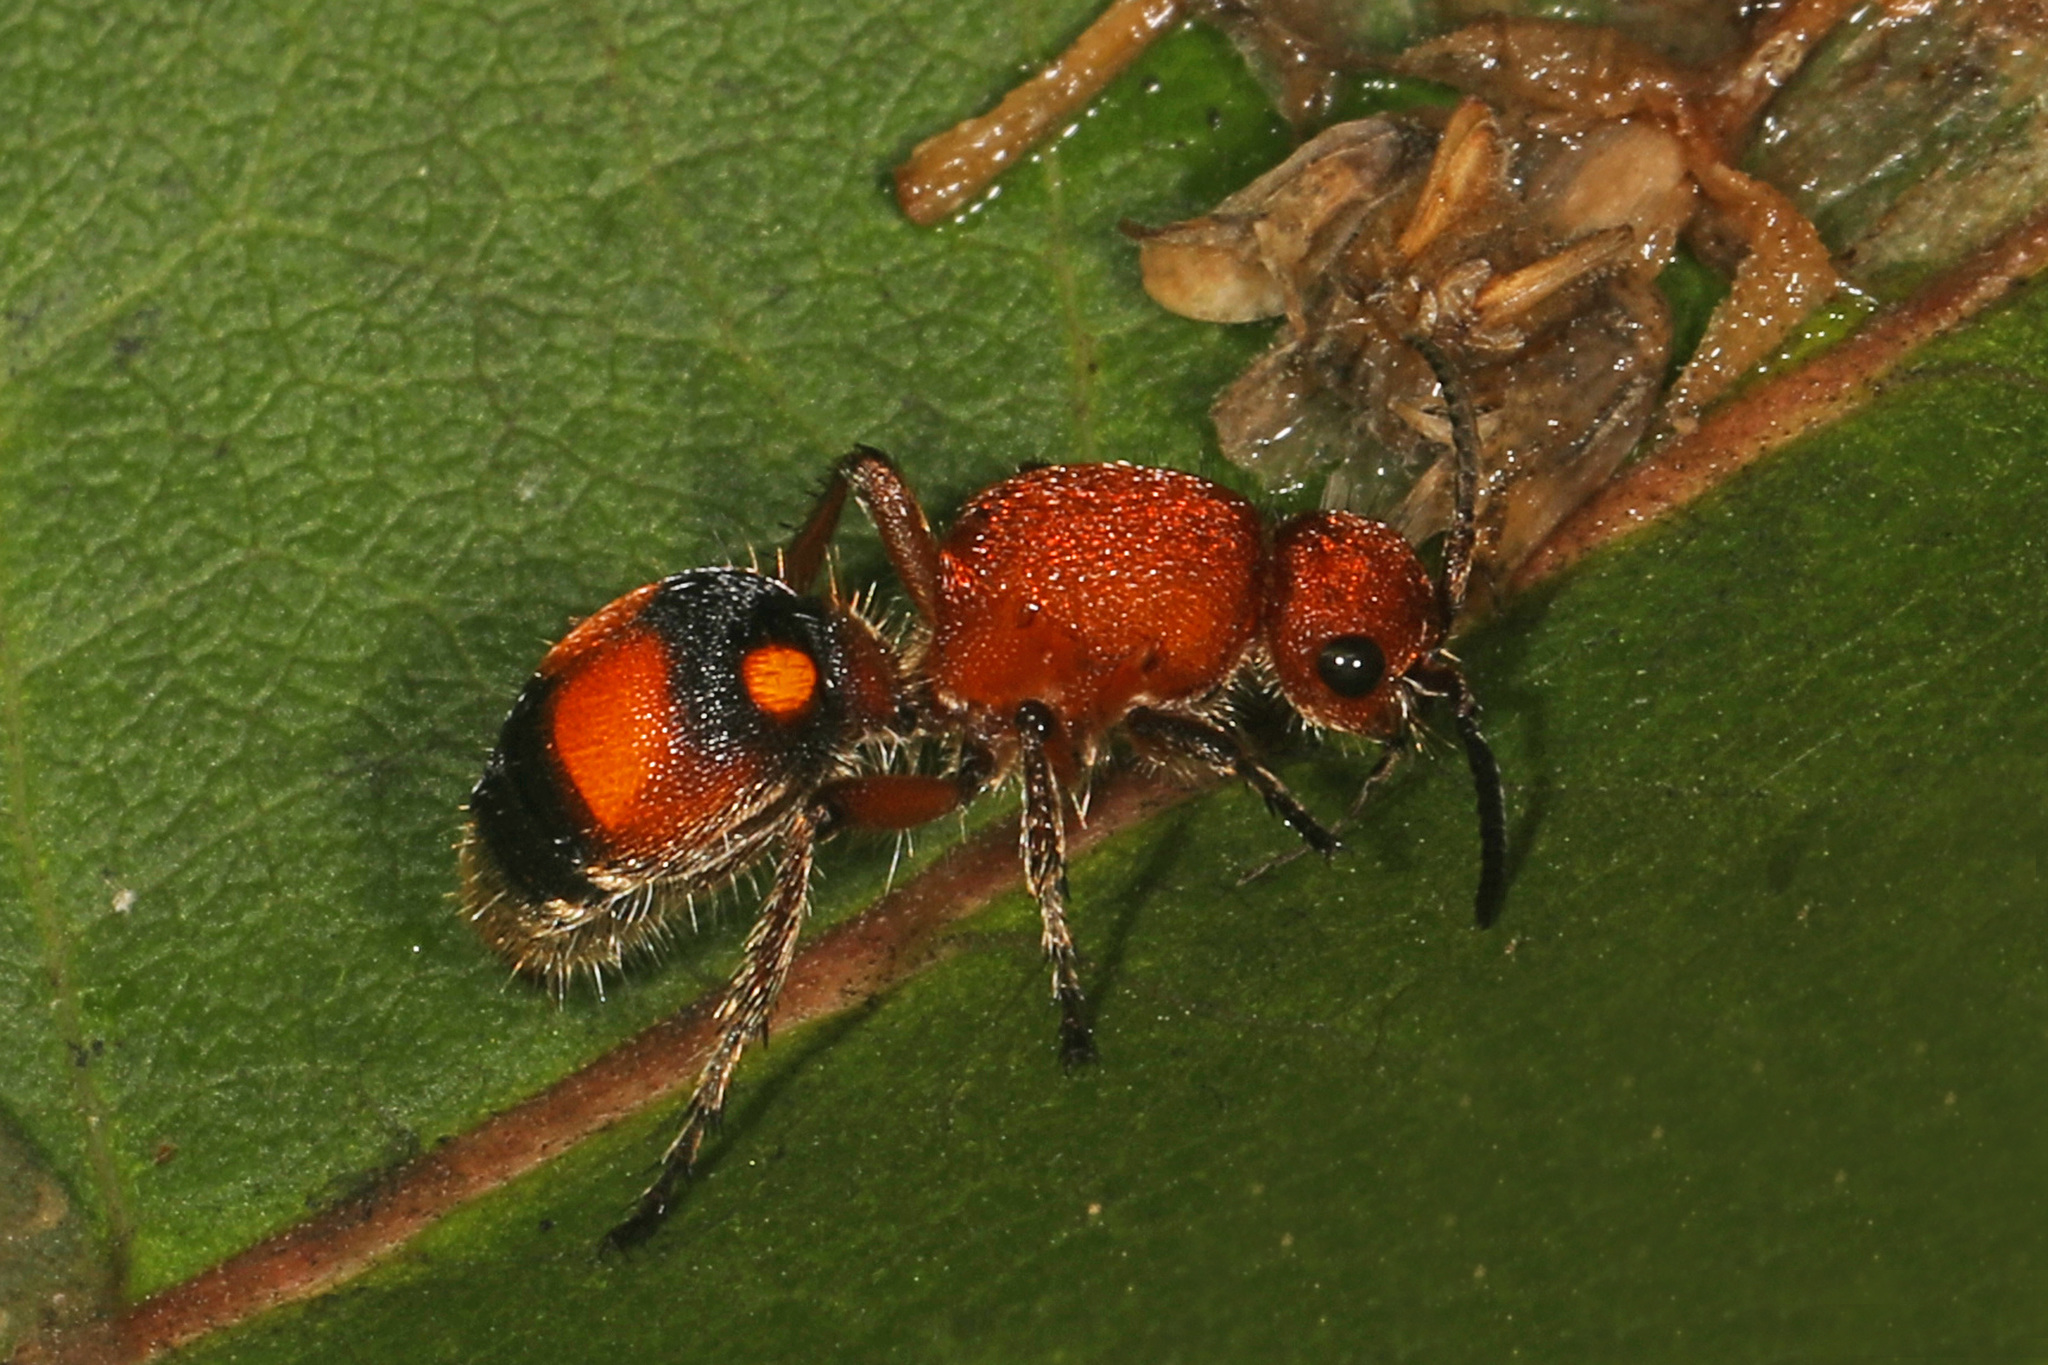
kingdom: Animalia
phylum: Arthropoda
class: Insecta
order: Hymenoptera
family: Mutillidae
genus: Dasymutilla
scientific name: Dasymutilla
